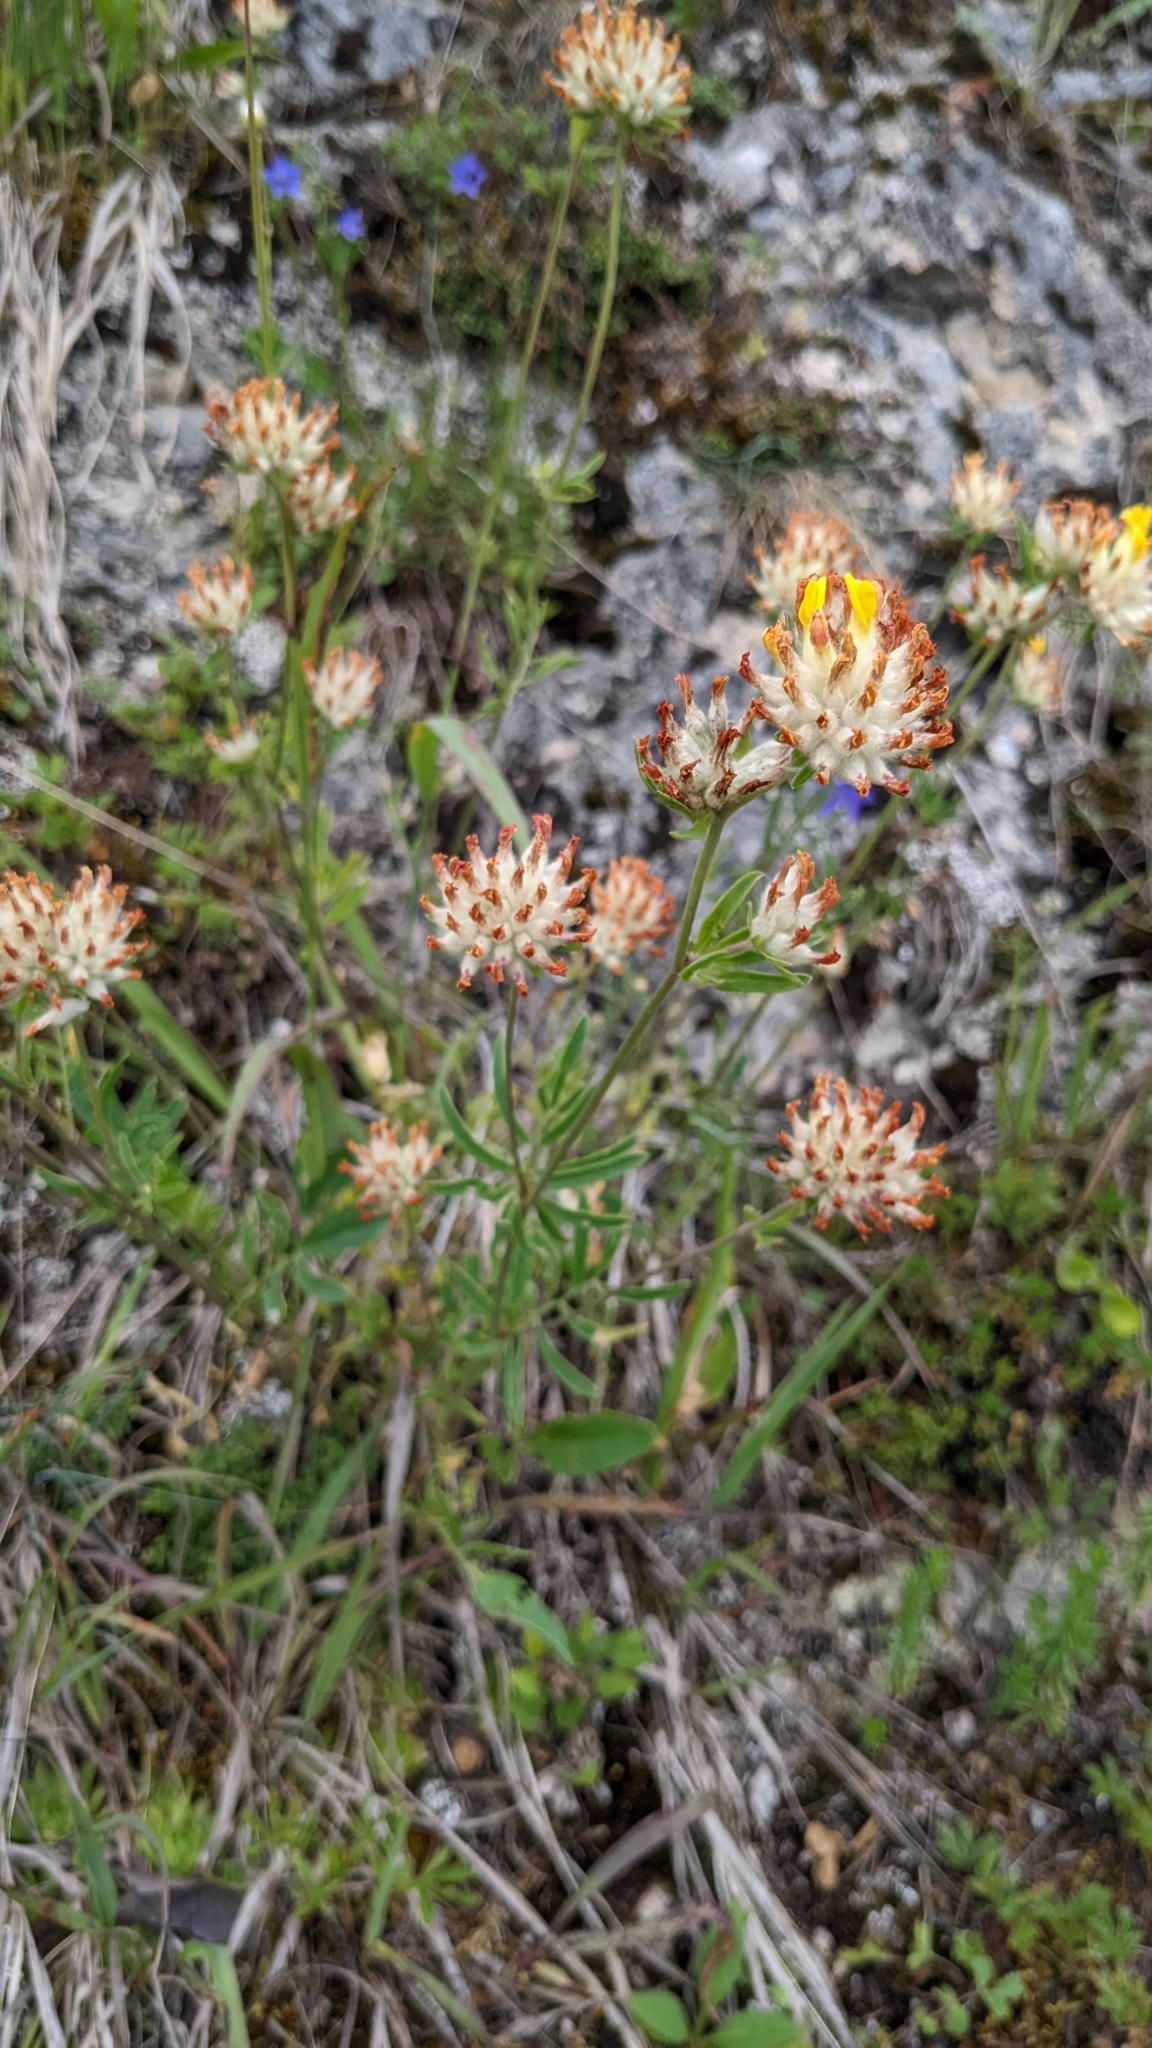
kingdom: Plantae
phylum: Tracheophyta
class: Magnoliopsida
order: Fabales
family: Fabaceae
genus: Anthyllis
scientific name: Anthyllis vulneraria
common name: Kidney vetch
